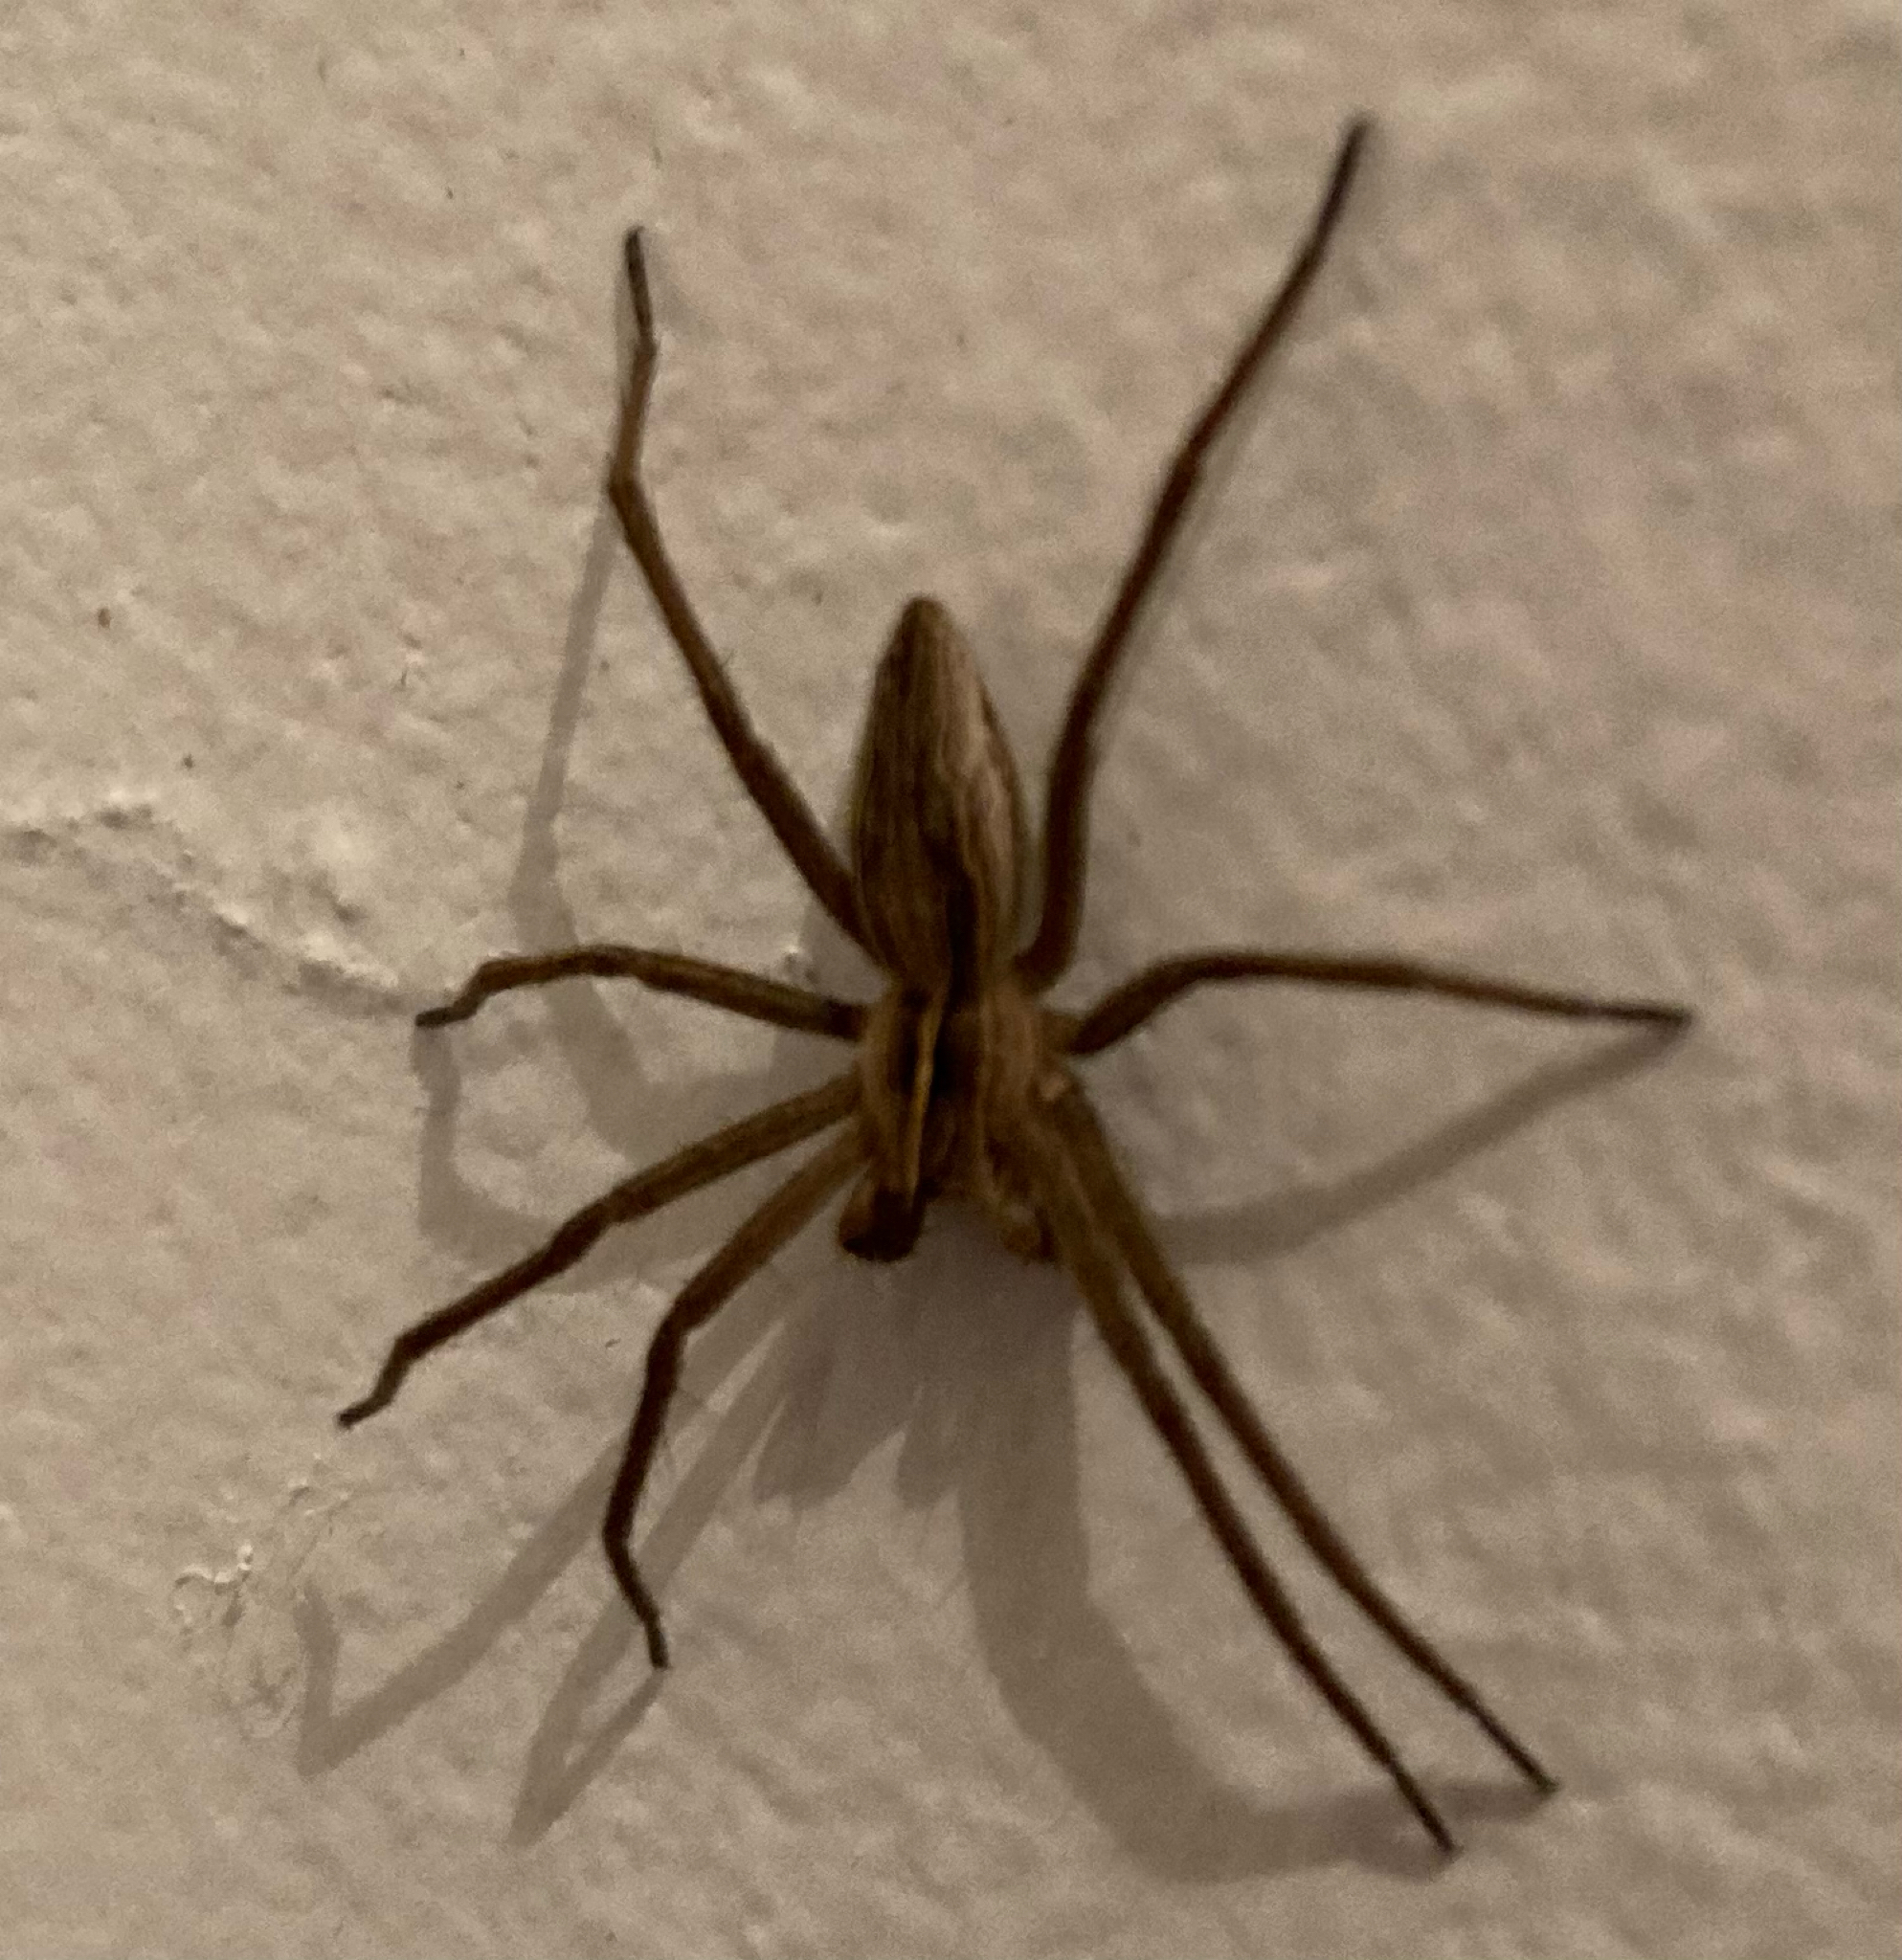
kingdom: Animalia
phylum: Arthropoda
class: Arachnida
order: Araneae
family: Pisauridae
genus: Pisaura
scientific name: Pisaura mirabilis
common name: Tent spider
